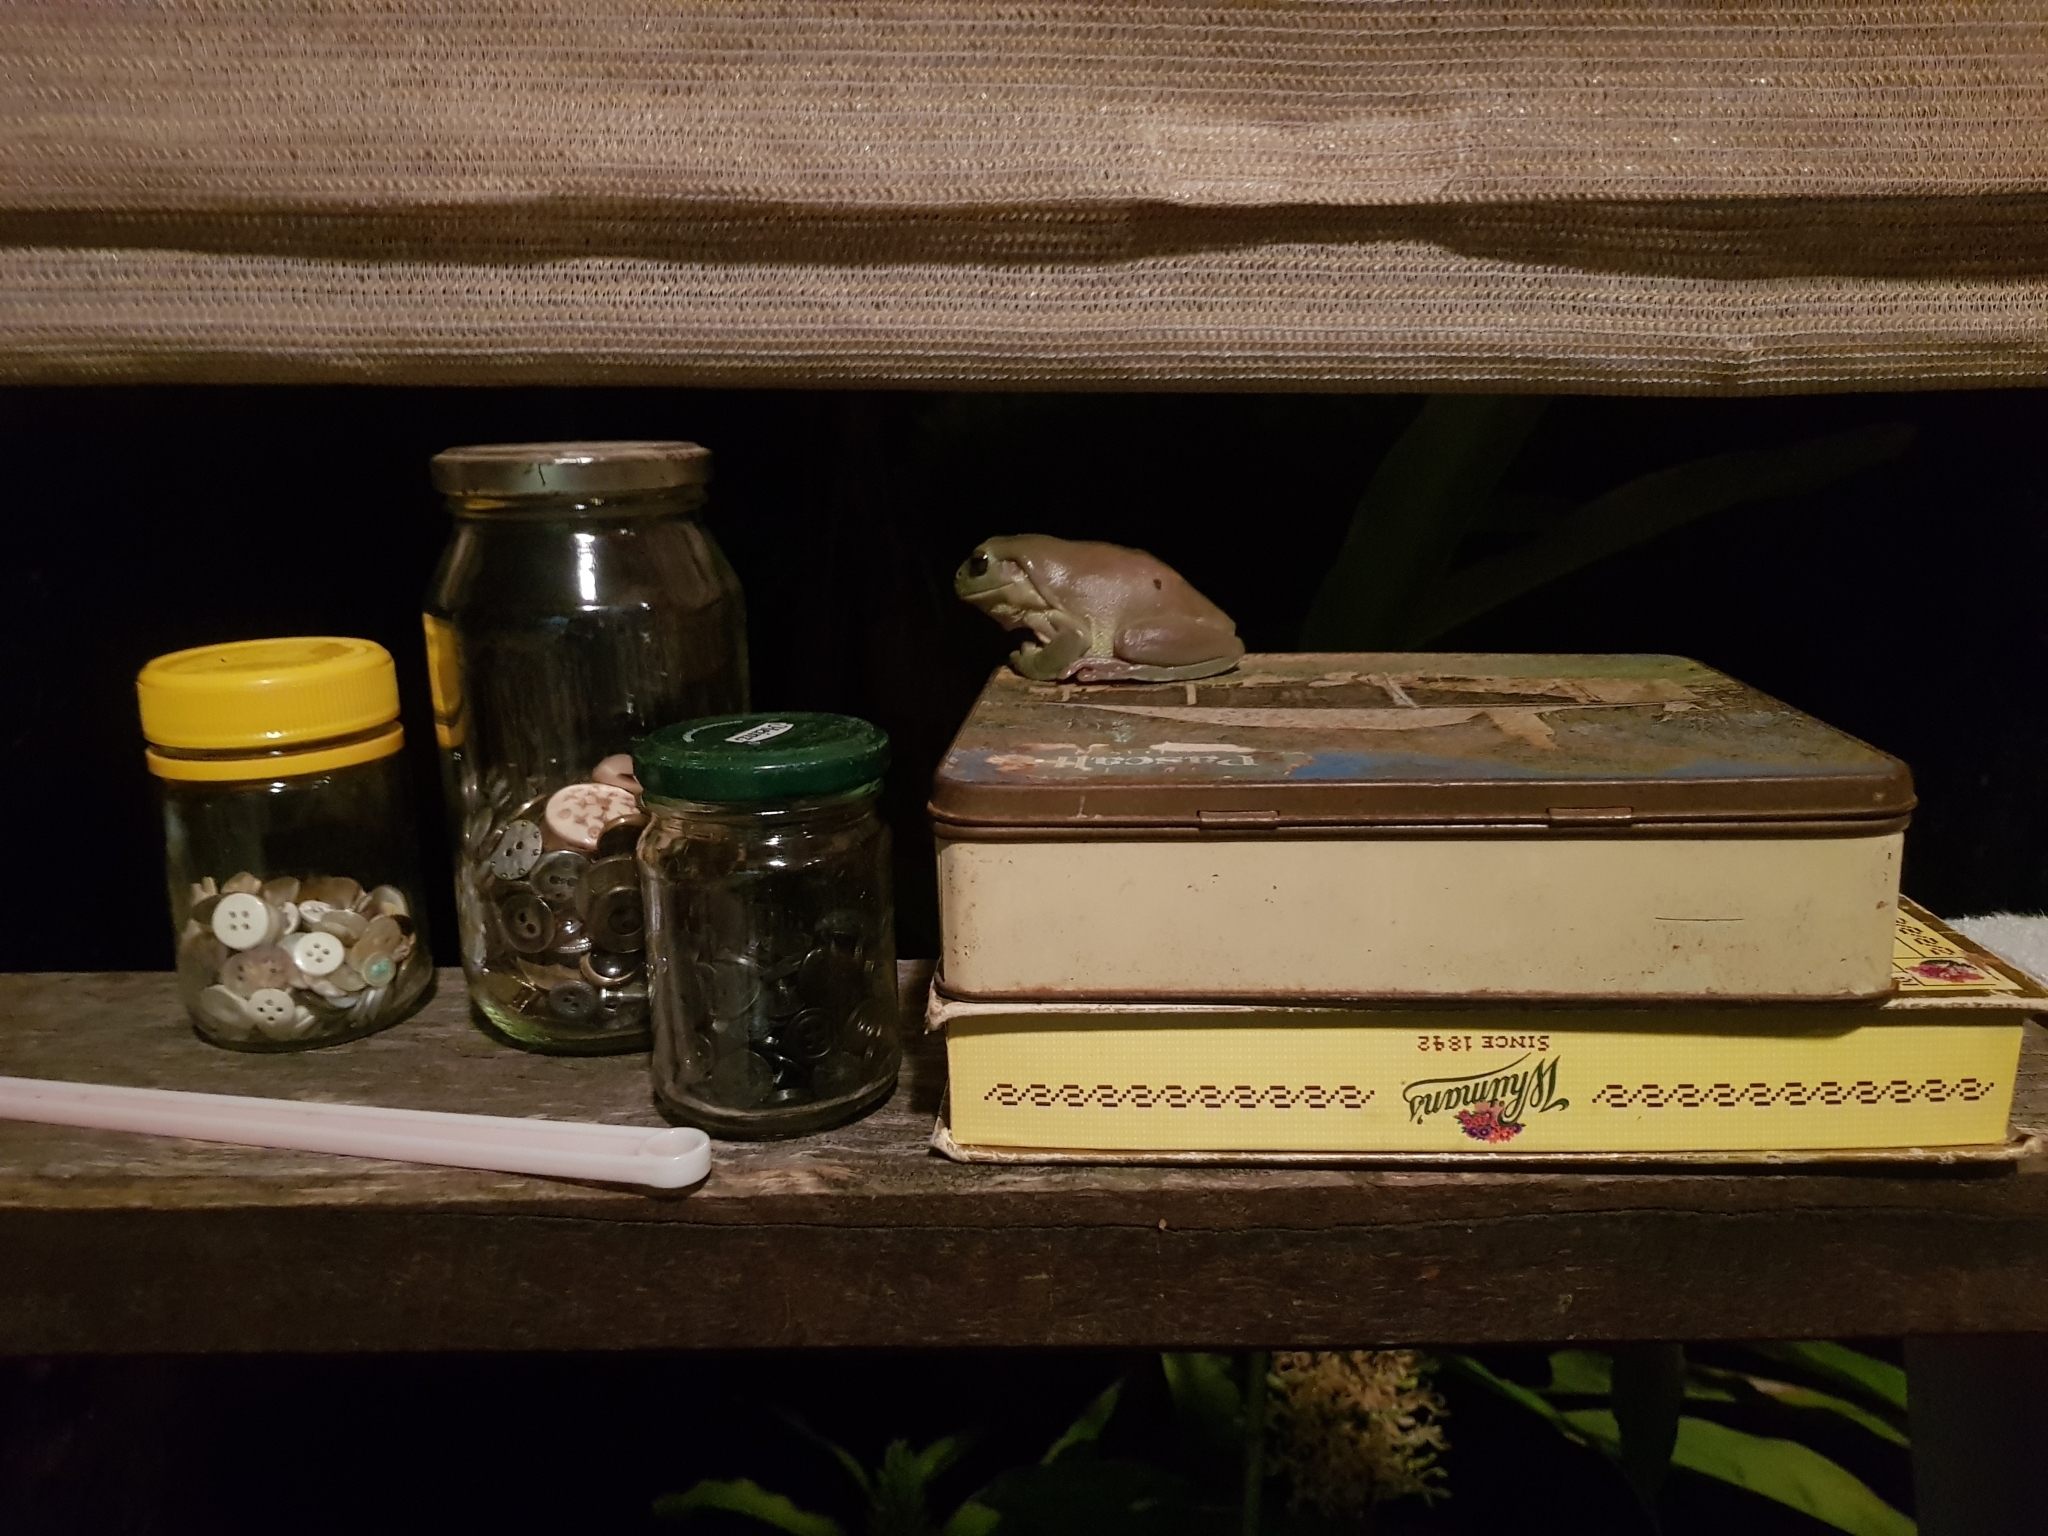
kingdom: Animalia
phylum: Chordata
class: Amphibia
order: Anura
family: Pelodryadidae
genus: Ranoidea
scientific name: Ranoidea caerulea
